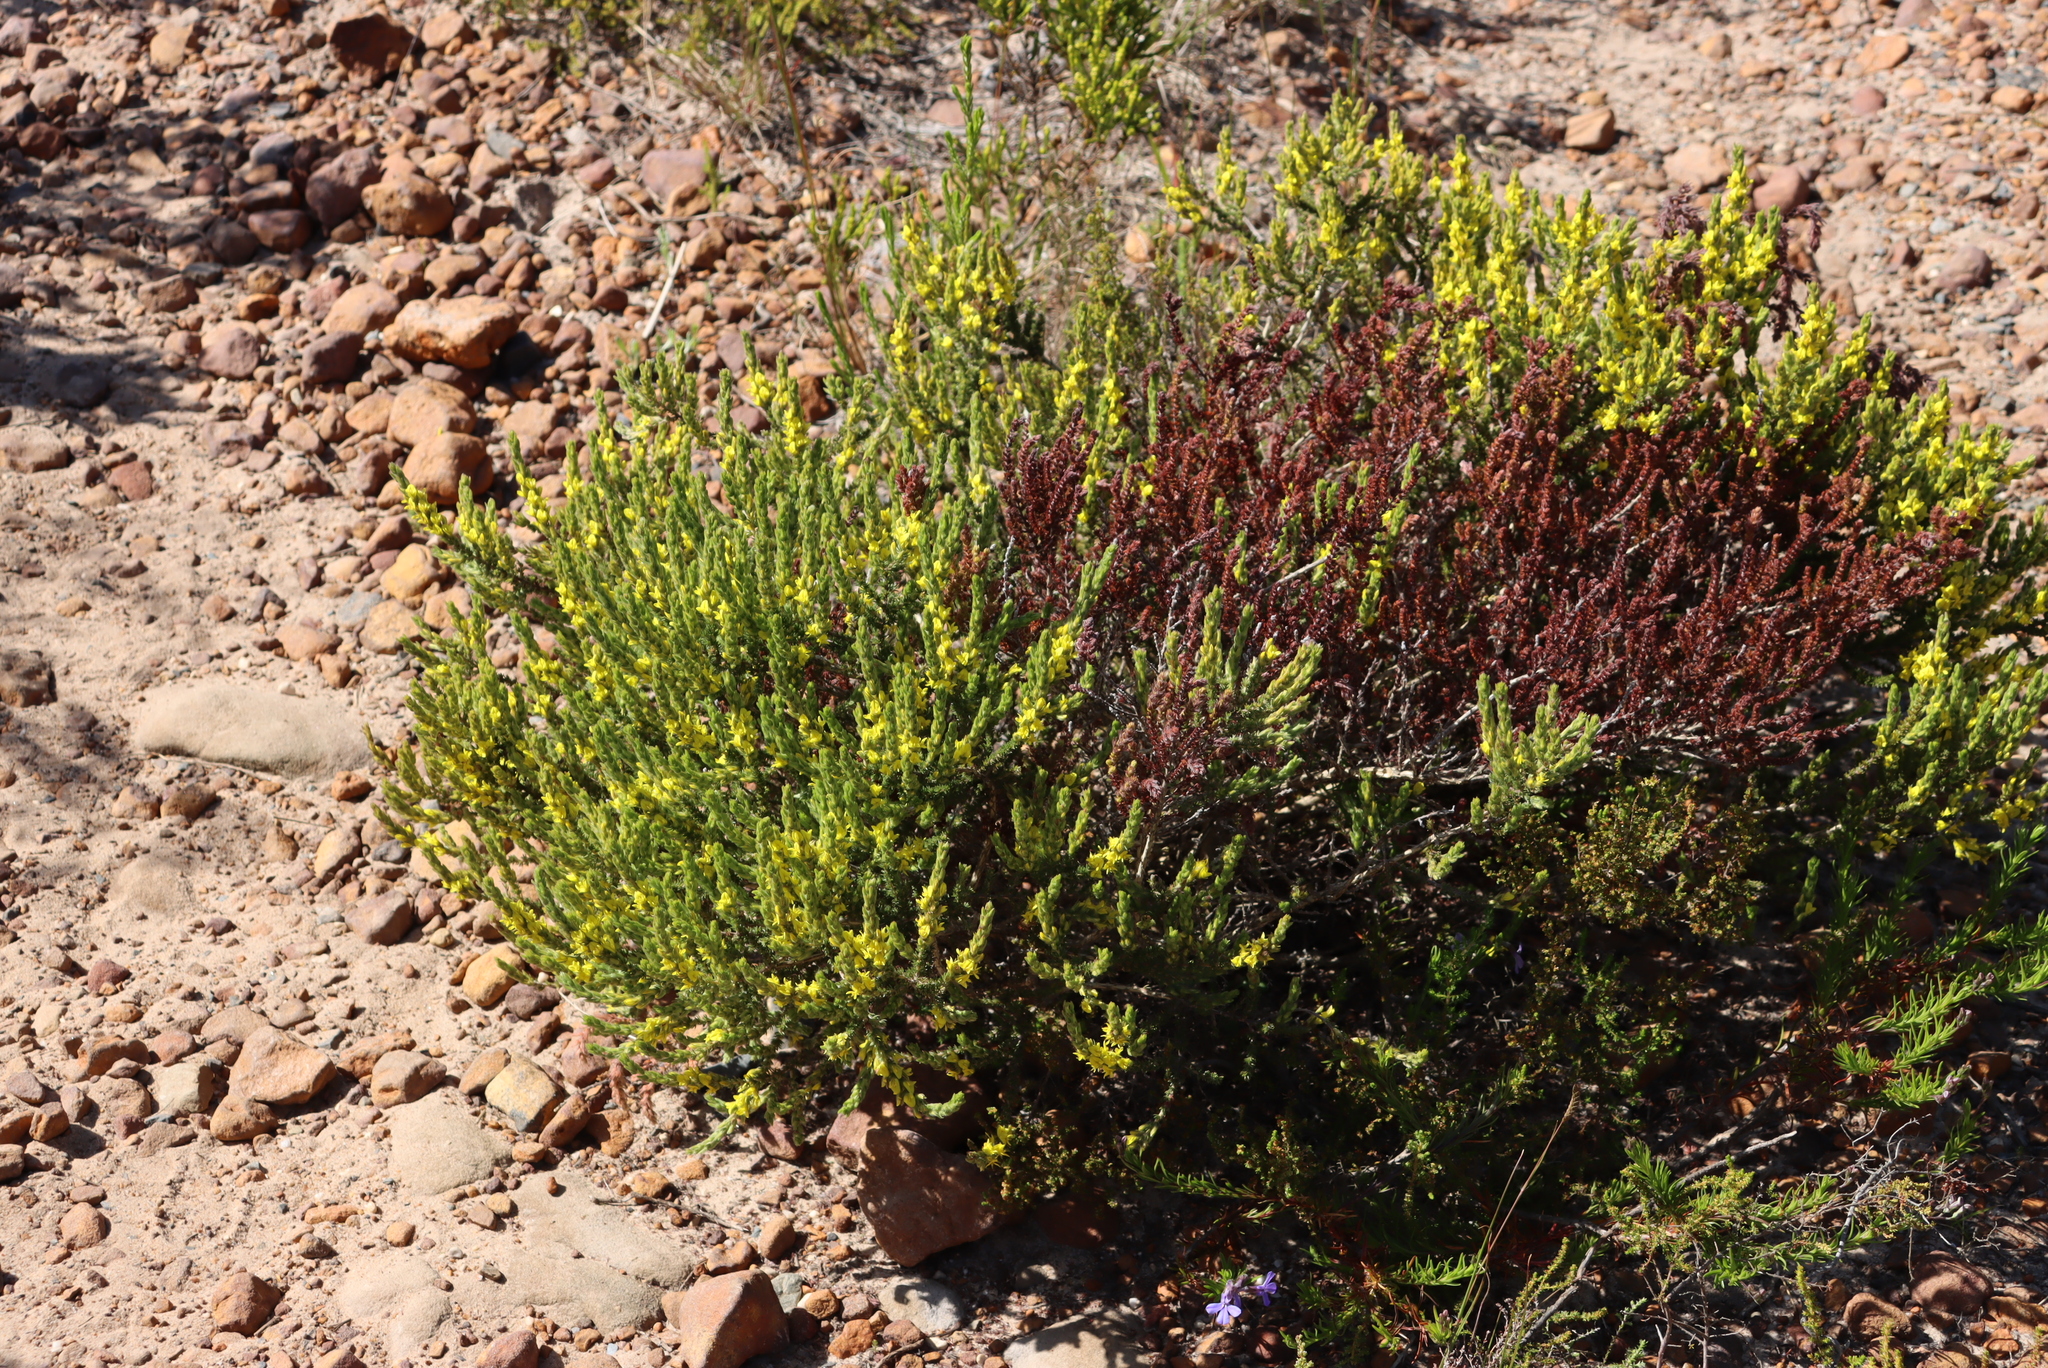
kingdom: Plantae
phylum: Tracheophyta
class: Magnoliopsida
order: Fabales
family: Fabaceae
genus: Aspalathus
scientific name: Aspalathus ericifolia
